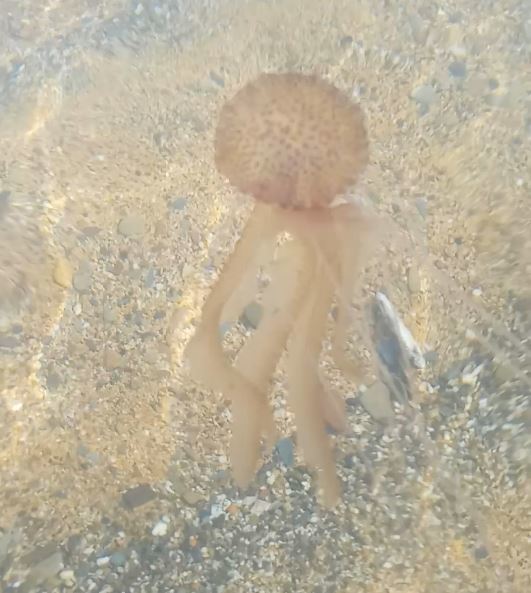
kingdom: Animalia
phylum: Cnidaria
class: Scyphozoa
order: Semaeostomeae
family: Pelagiidae
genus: Pelagia
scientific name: Pelagia noctiluca
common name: Mauve stinger
